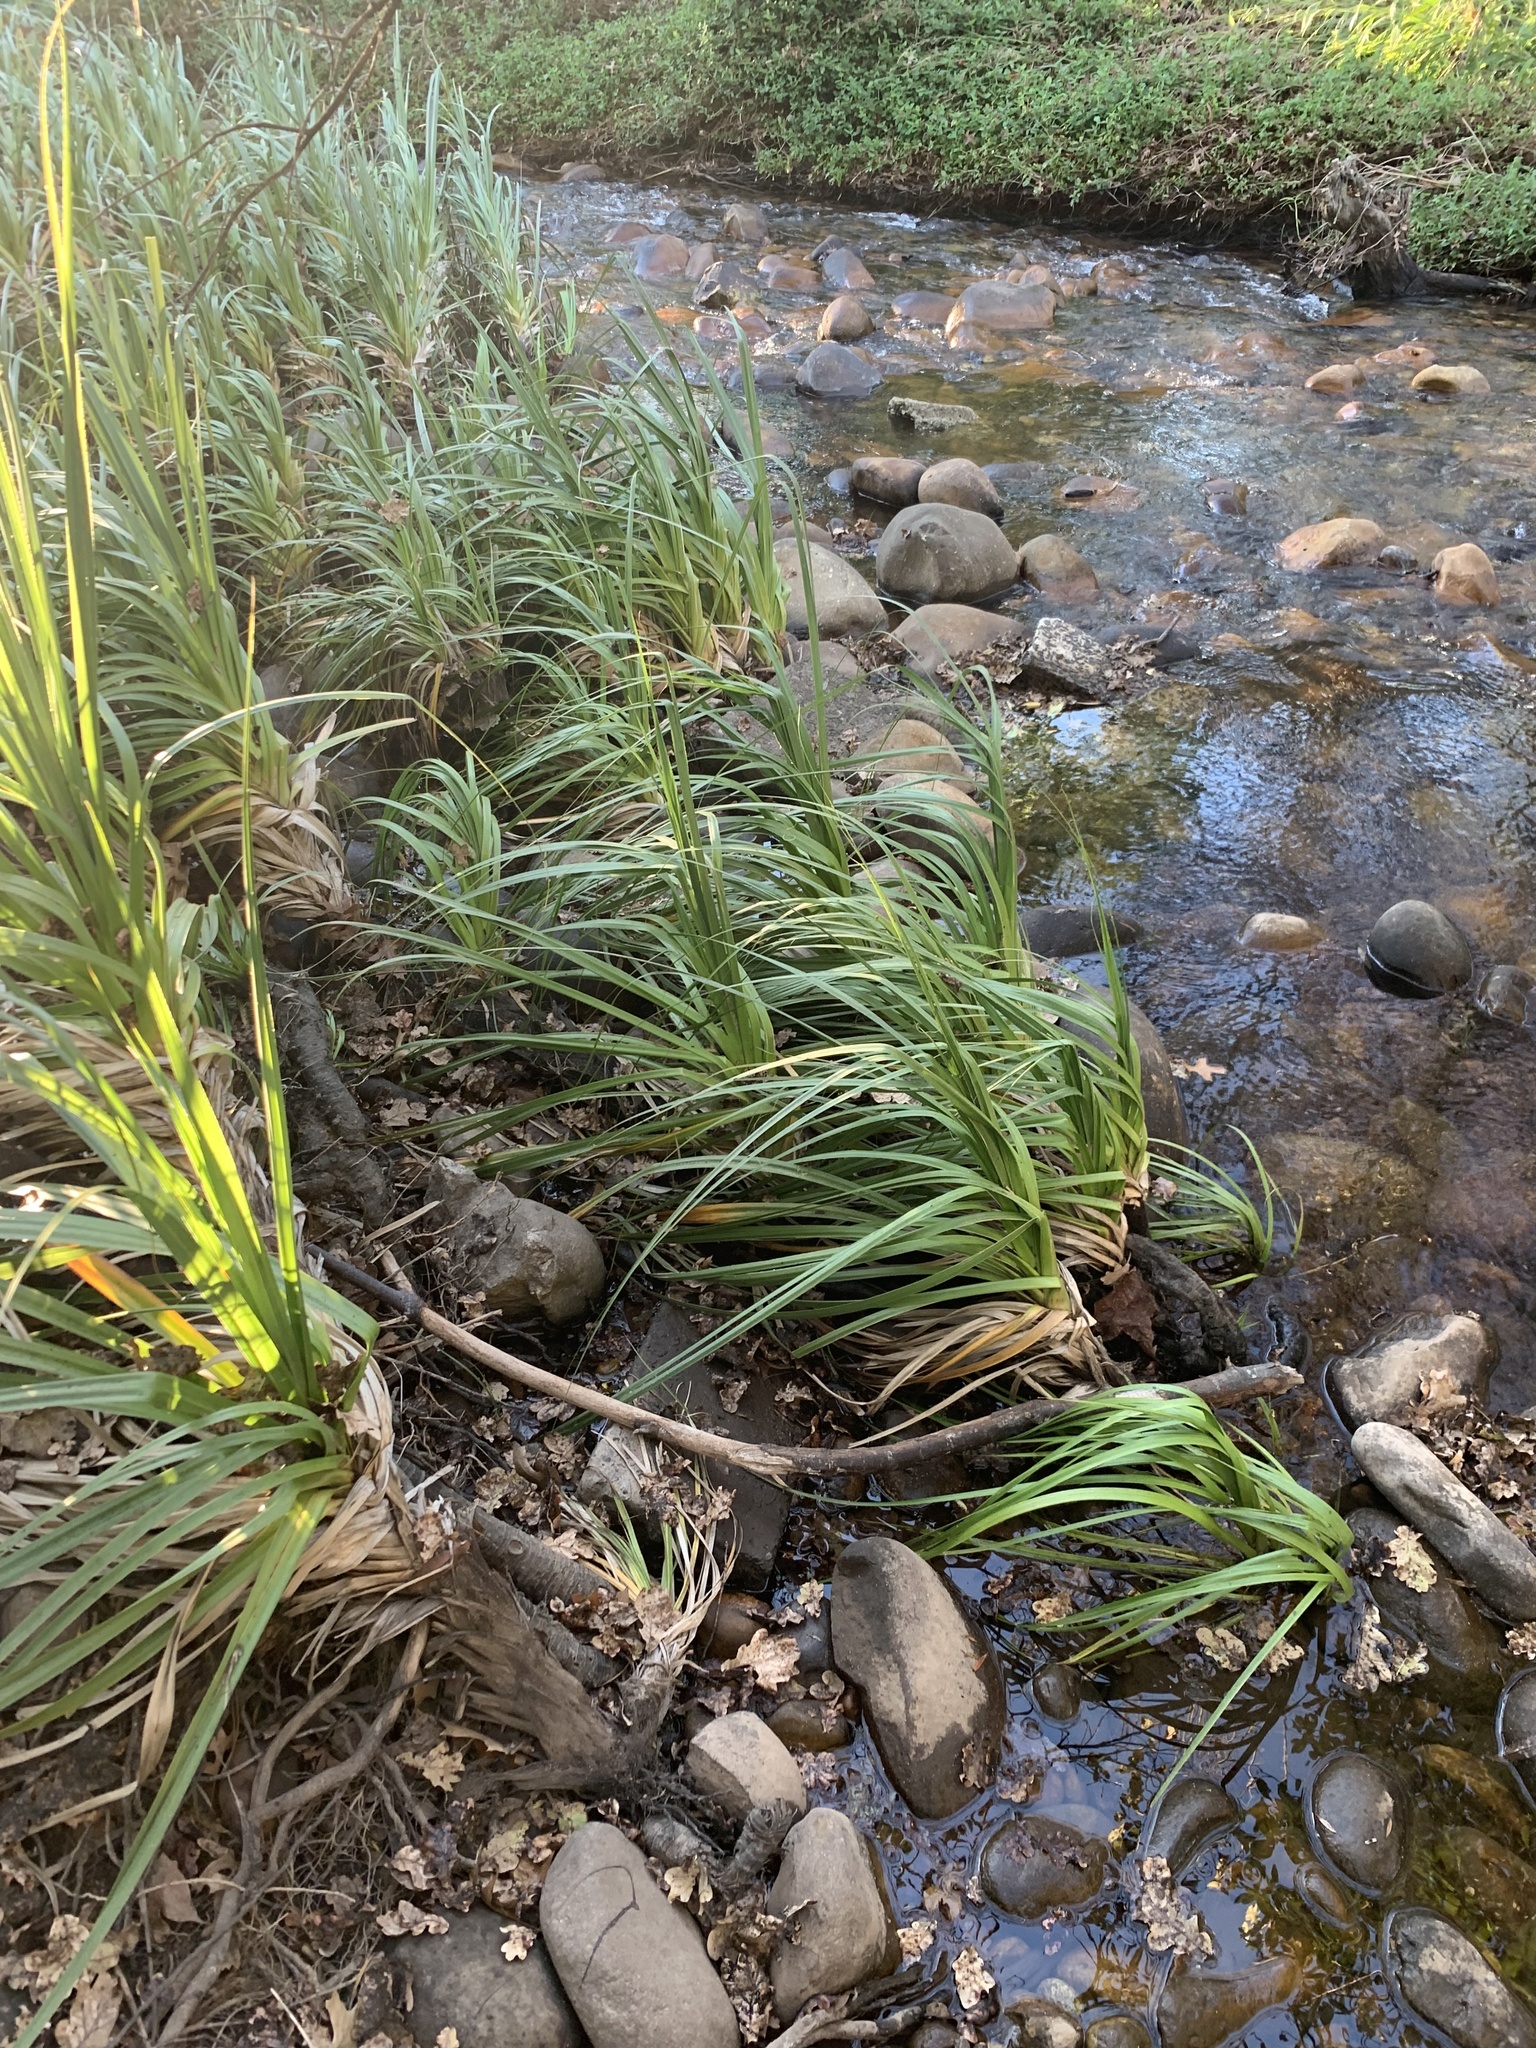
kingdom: Plantae
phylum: Tracheophyta
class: Liliopsida
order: Poales
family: Thurniaceae
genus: Prionium
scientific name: Prionium serratum
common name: Palmiet
